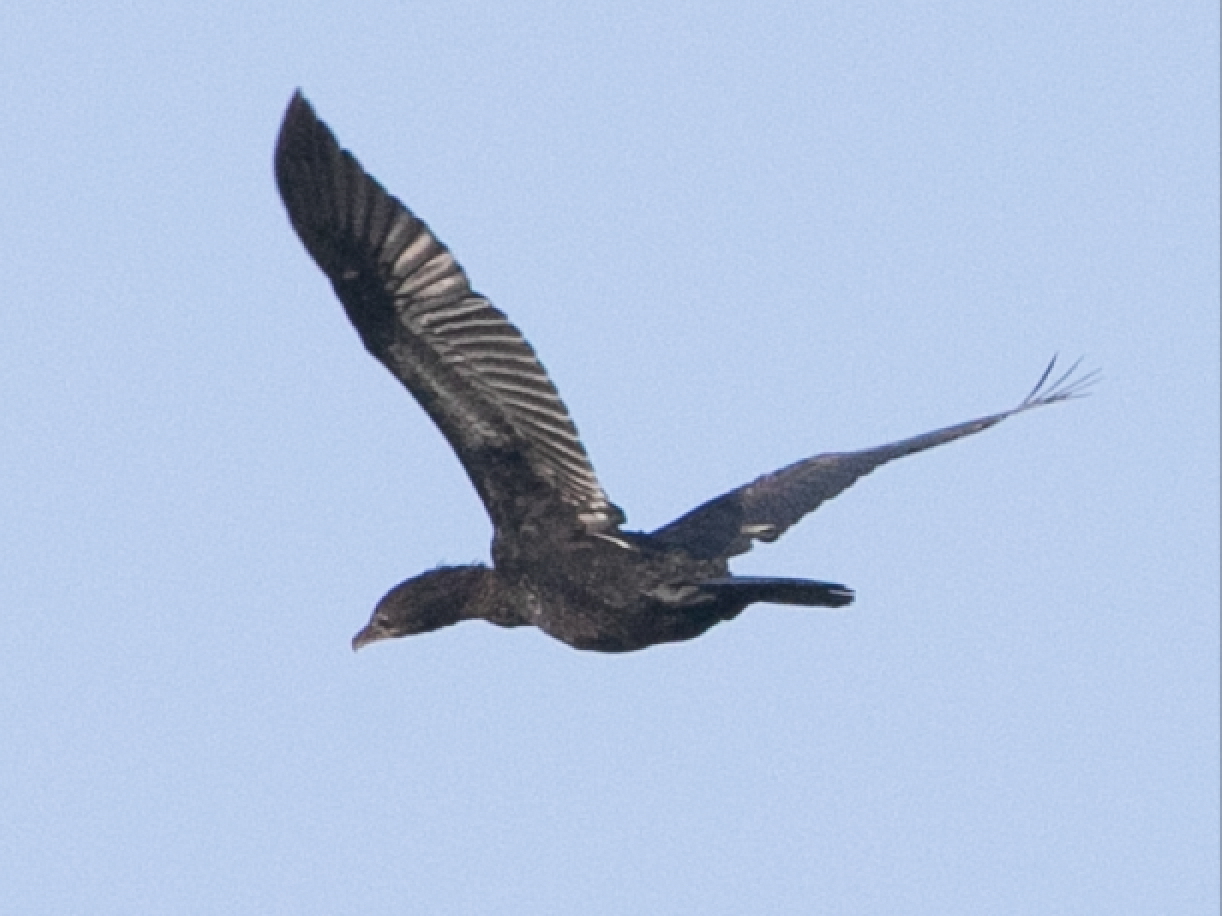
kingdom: Animalia
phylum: Chordata
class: Aves
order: Suliformes
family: Phalacrocoracidae
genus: Microcarbo
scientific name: Microcarbo pygmaeus
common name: Pygmy cormorant
